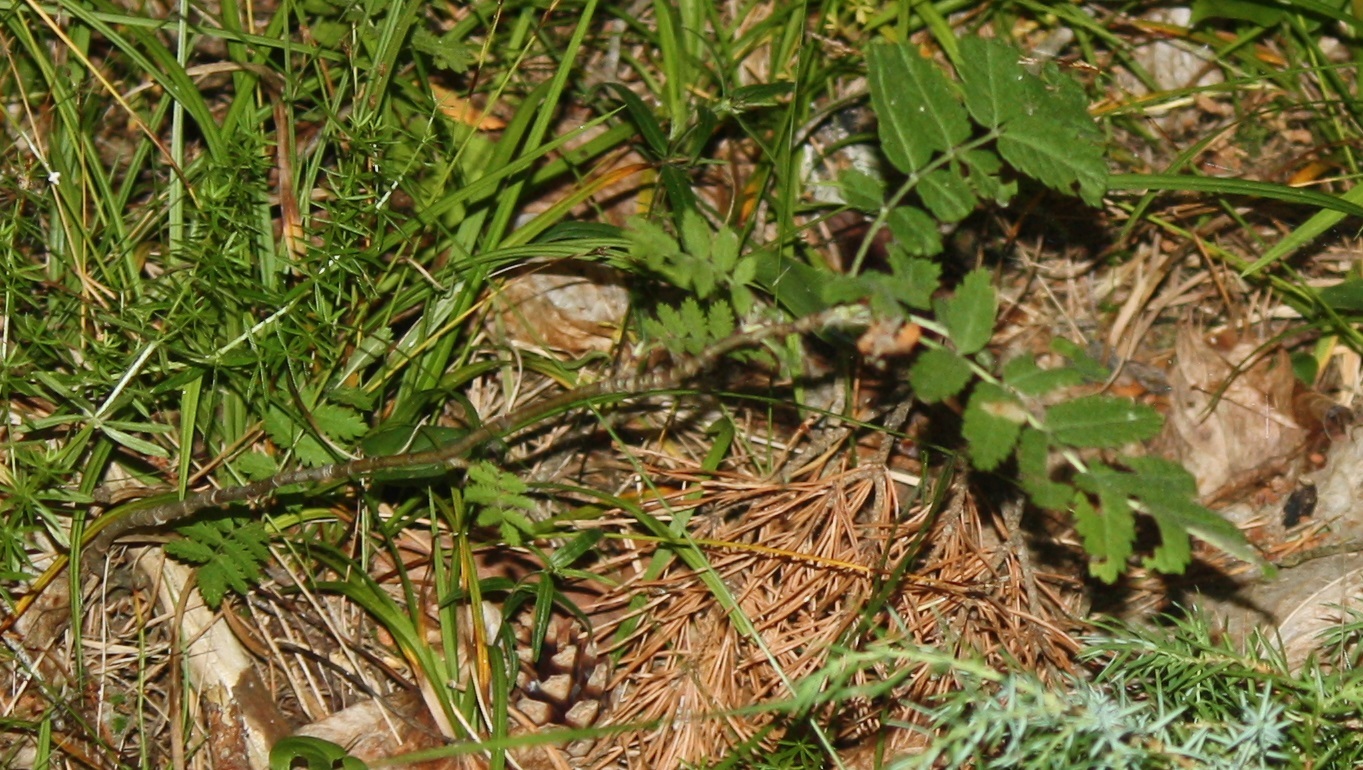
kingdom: Plantae
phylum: Tracheophyta
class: Magnoliopsida
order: Rosales
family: Rosaceae
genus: Sorbus
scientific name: Sorbus aucuparia
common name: Rowan
